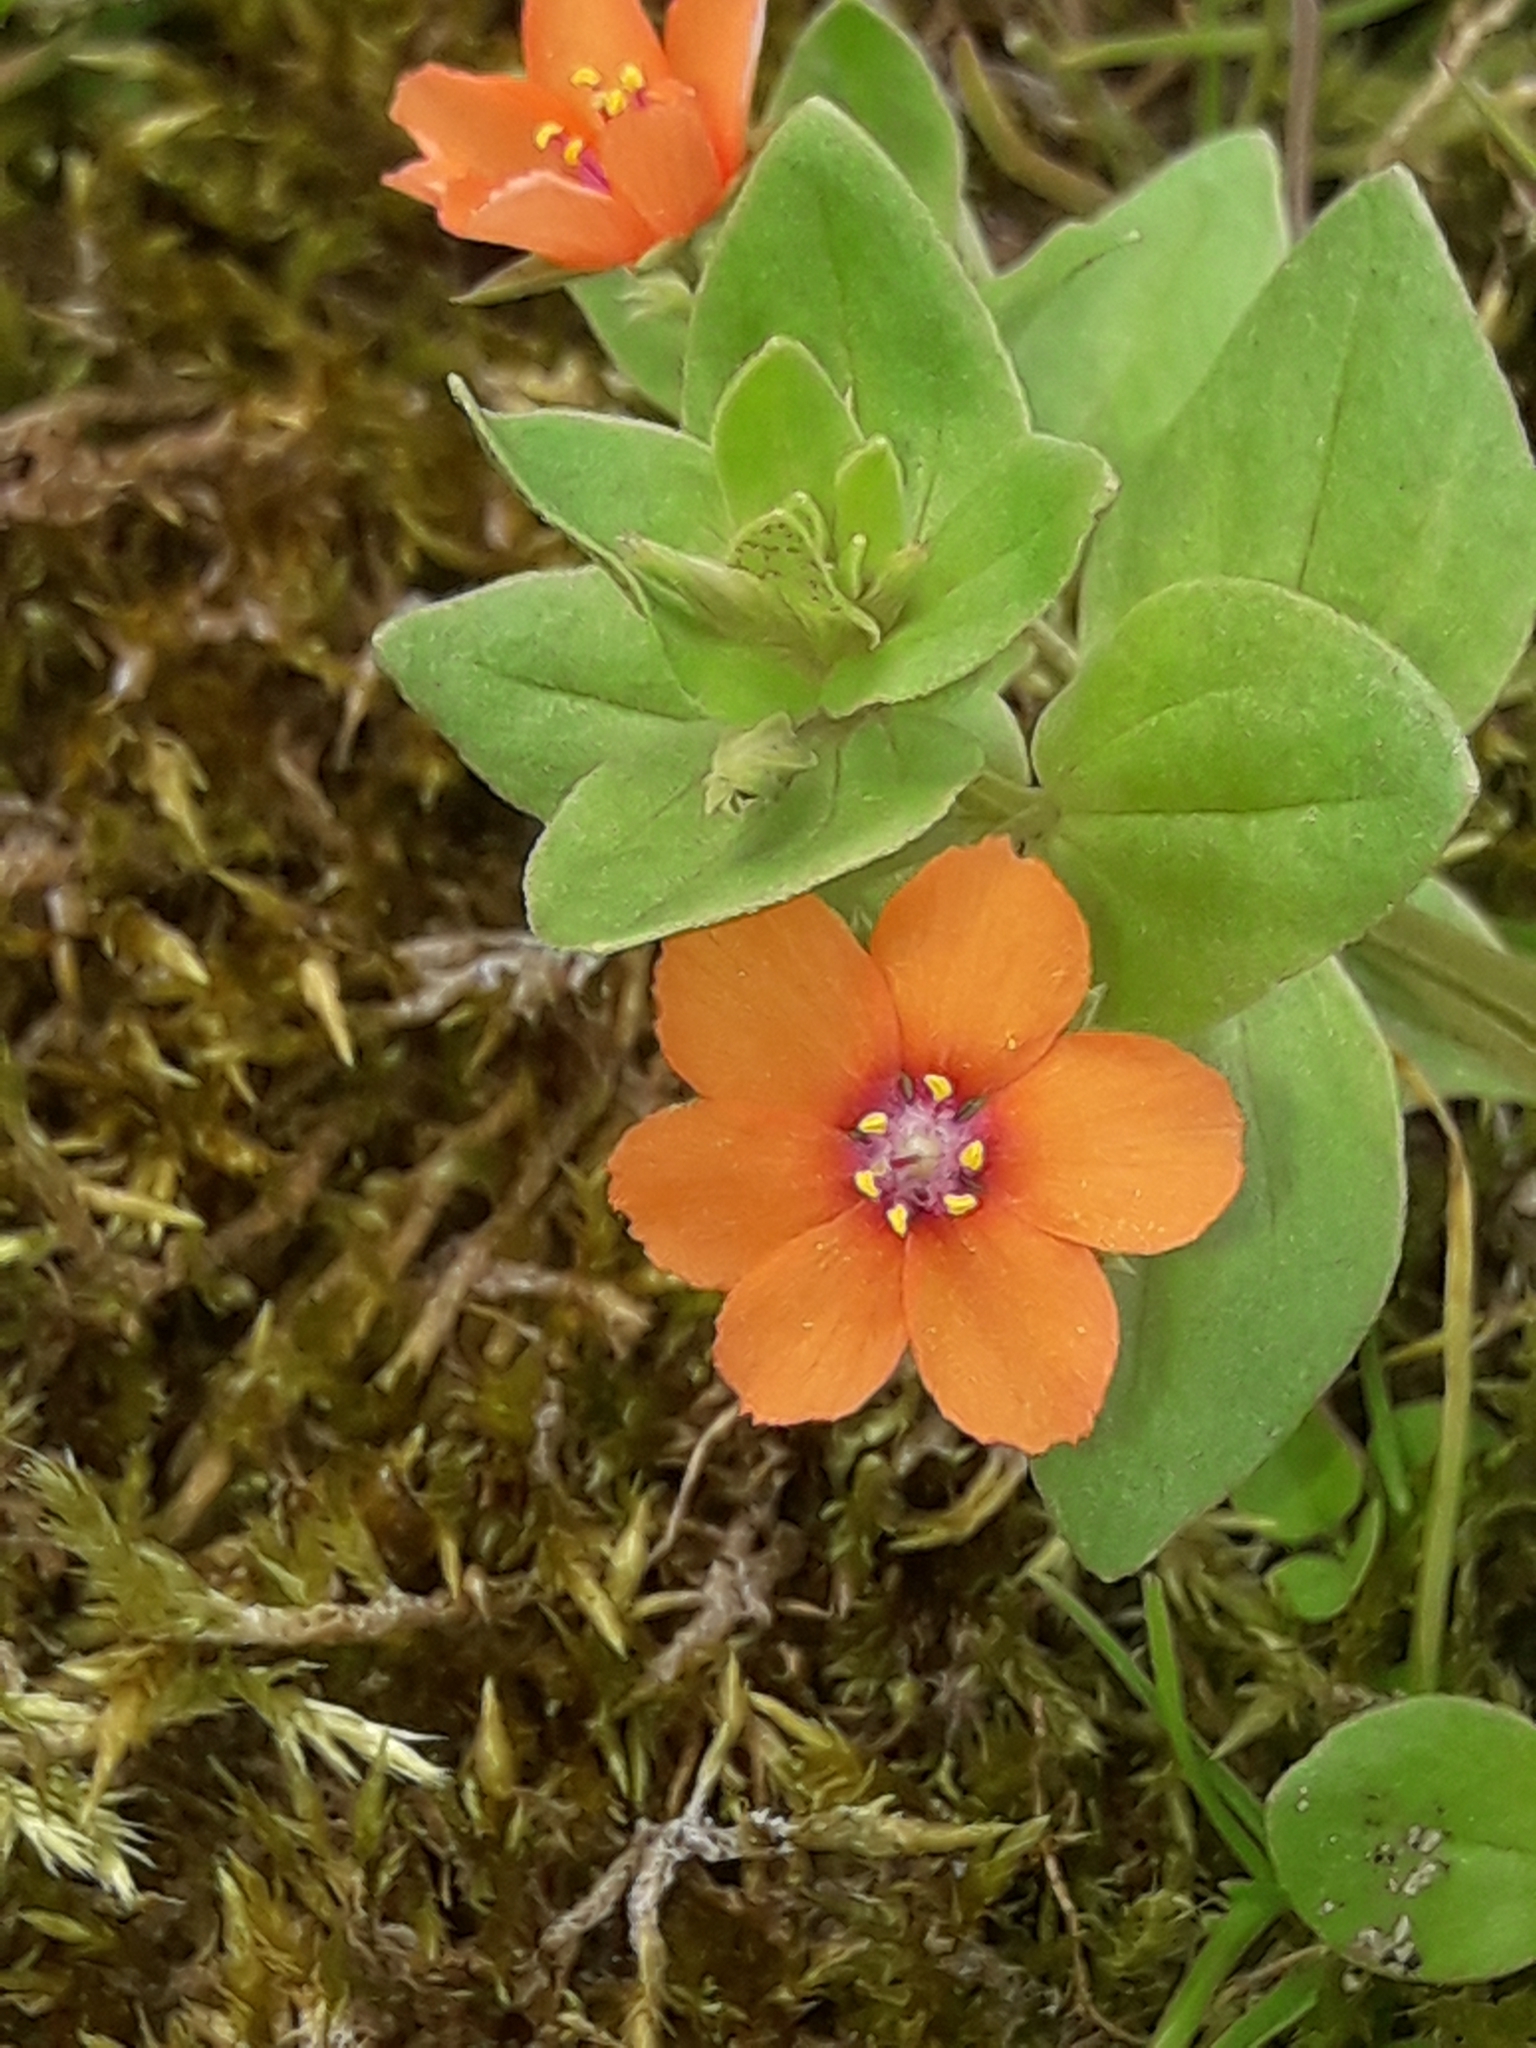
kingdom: Plantae
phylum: Tracheophyta
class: Magnoliopsida
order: Ericales
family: Primulaceae
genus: Lysimachia
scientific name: Lysimachia arvensis
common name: Scarlet pimpernel
